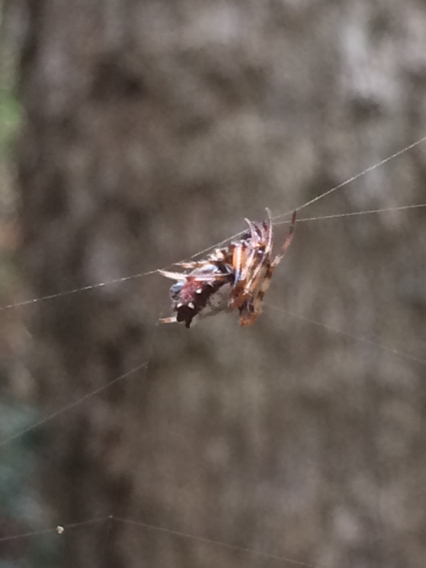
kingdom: Animalia
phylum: Arthropoda
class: Arachnida
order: Araneae
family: Araneidae
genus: Verrucosa
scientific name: Verrucosa arenata
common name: Orb weavers
